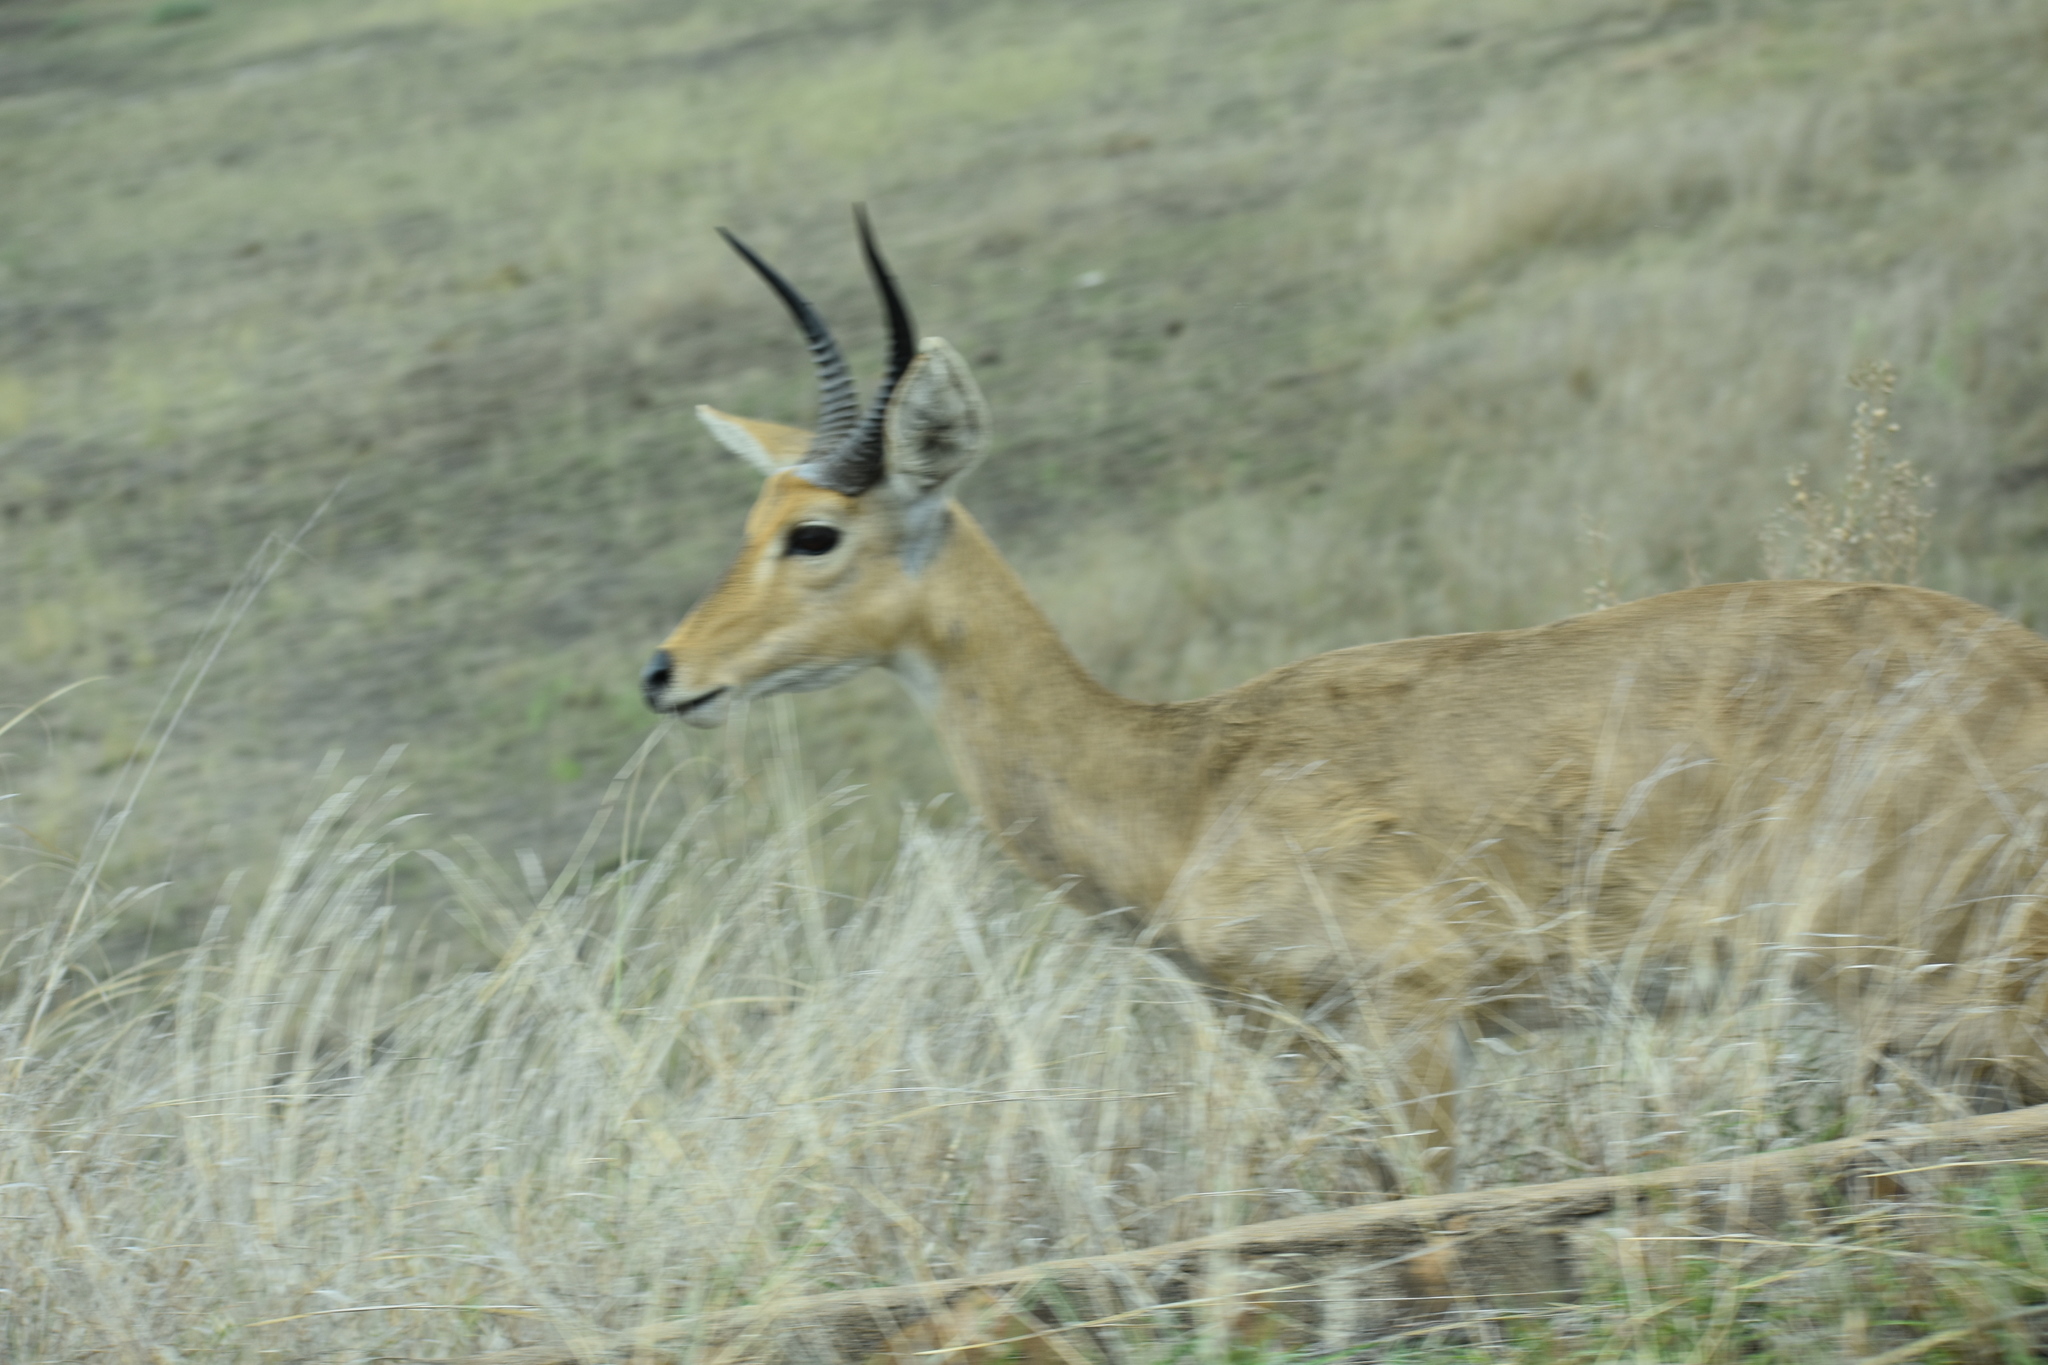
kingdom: Animalia
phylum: Chordata
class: Mammalia
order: Artiodactyla
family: Bovidae
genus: Redunca
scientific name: Redunca arundinum
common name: Southern reedbuck
